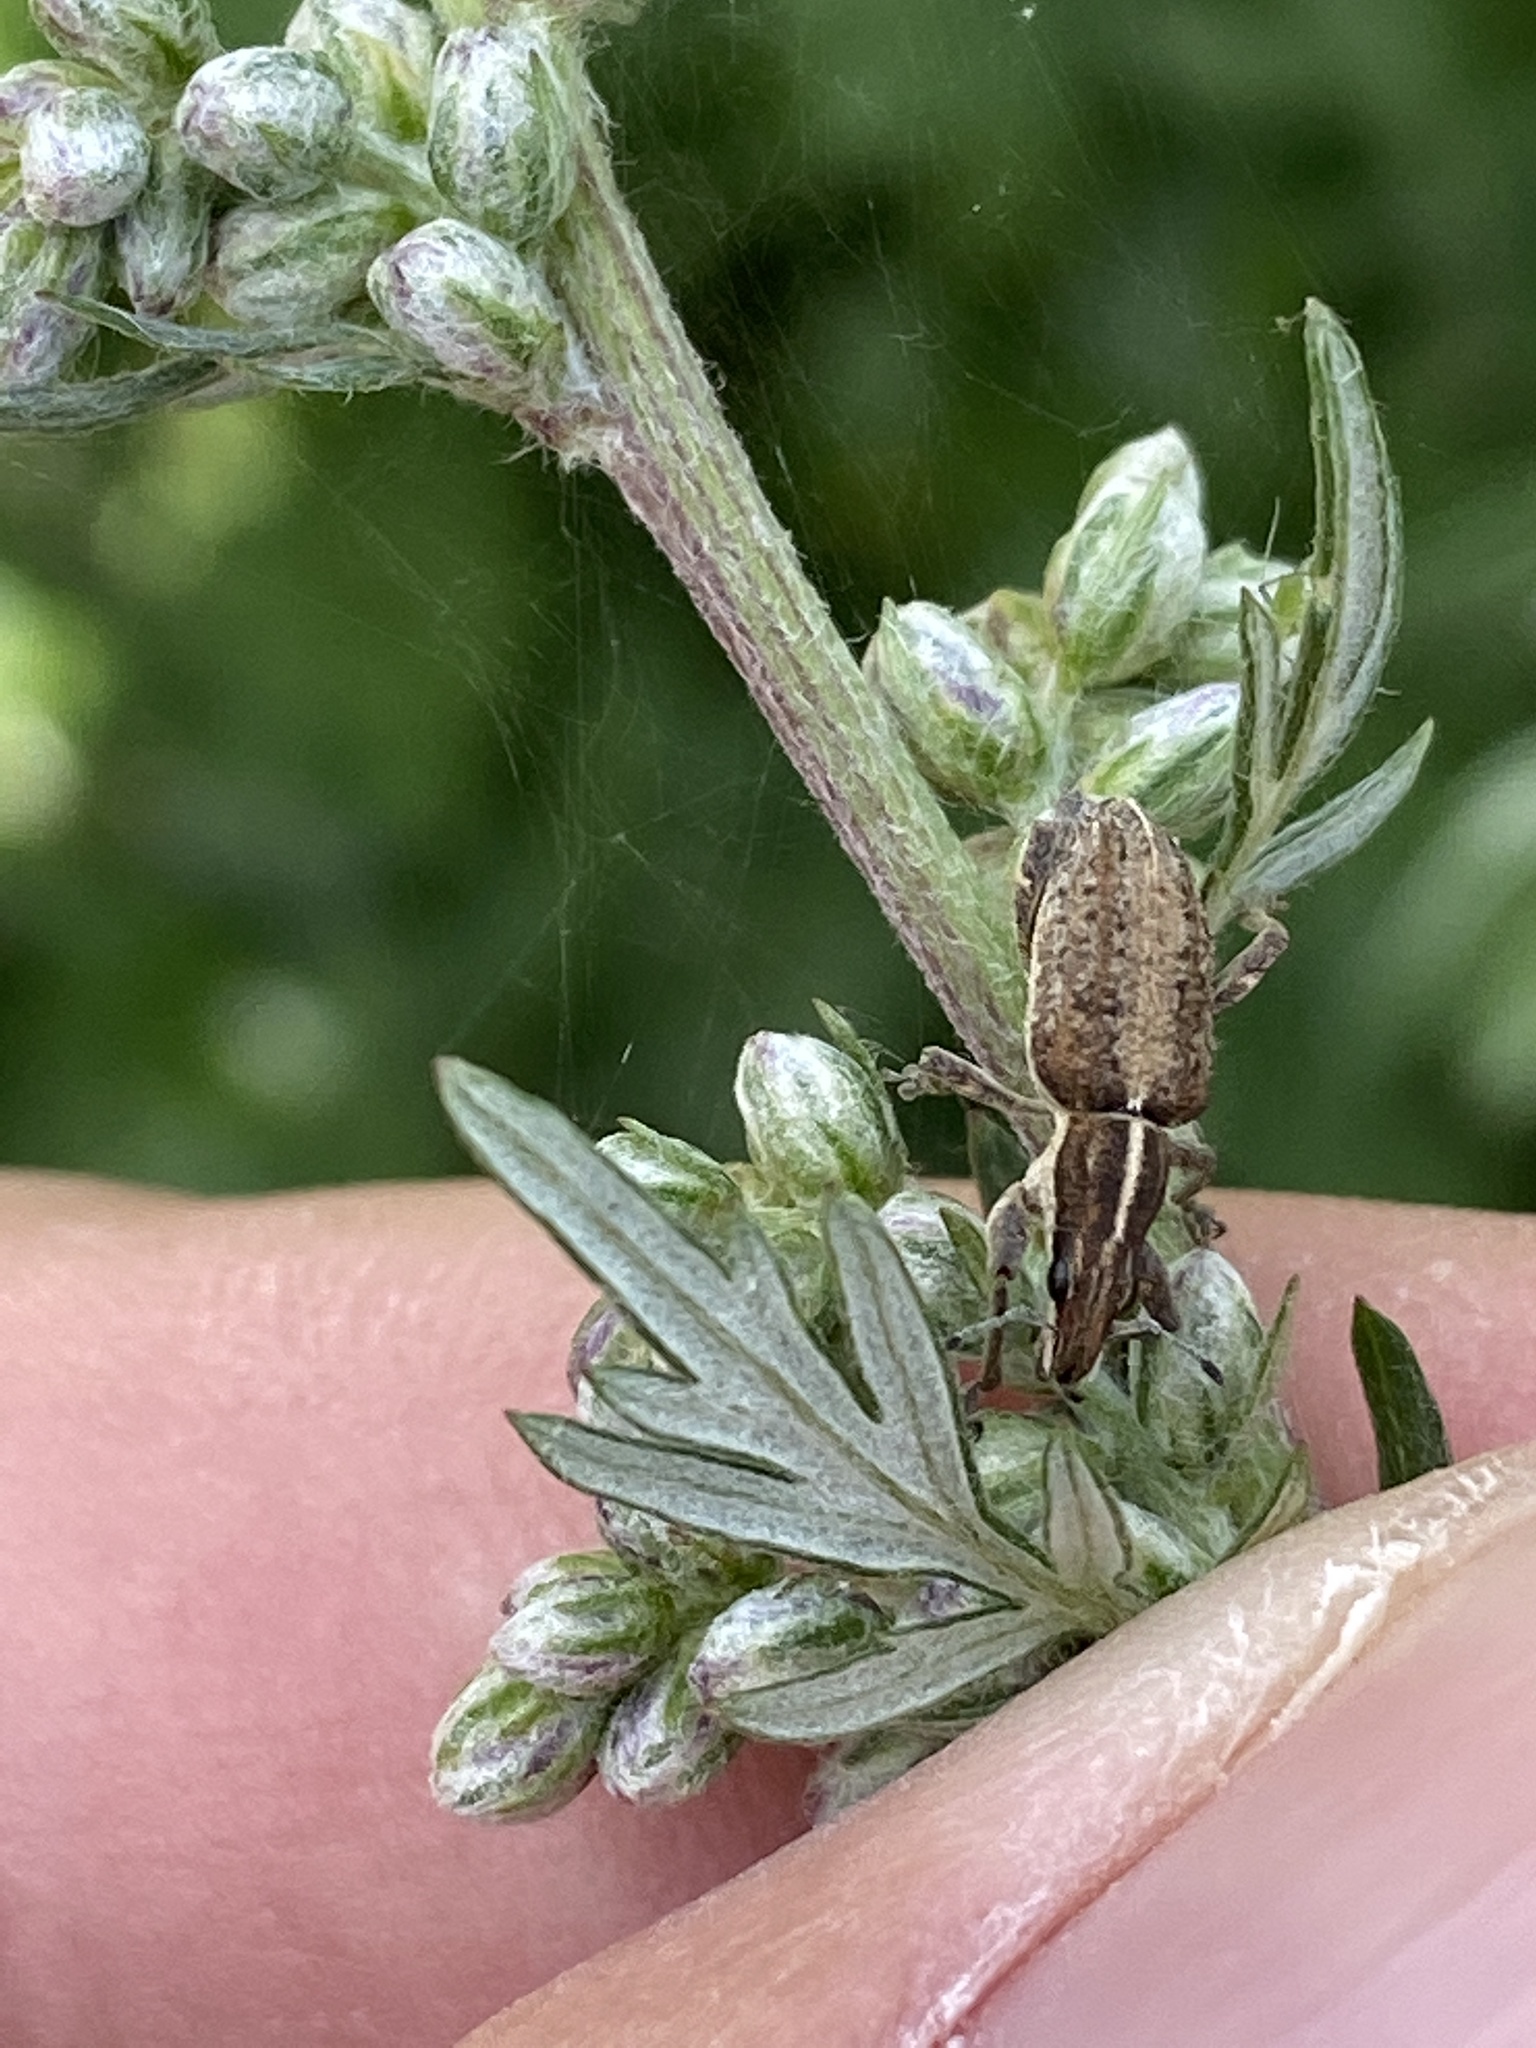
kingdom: Animalia
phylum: Arthropoda
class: Insecta
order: Coleoptera
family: Curculionidae
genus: Charagmus
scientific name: Charagmus gressorius
